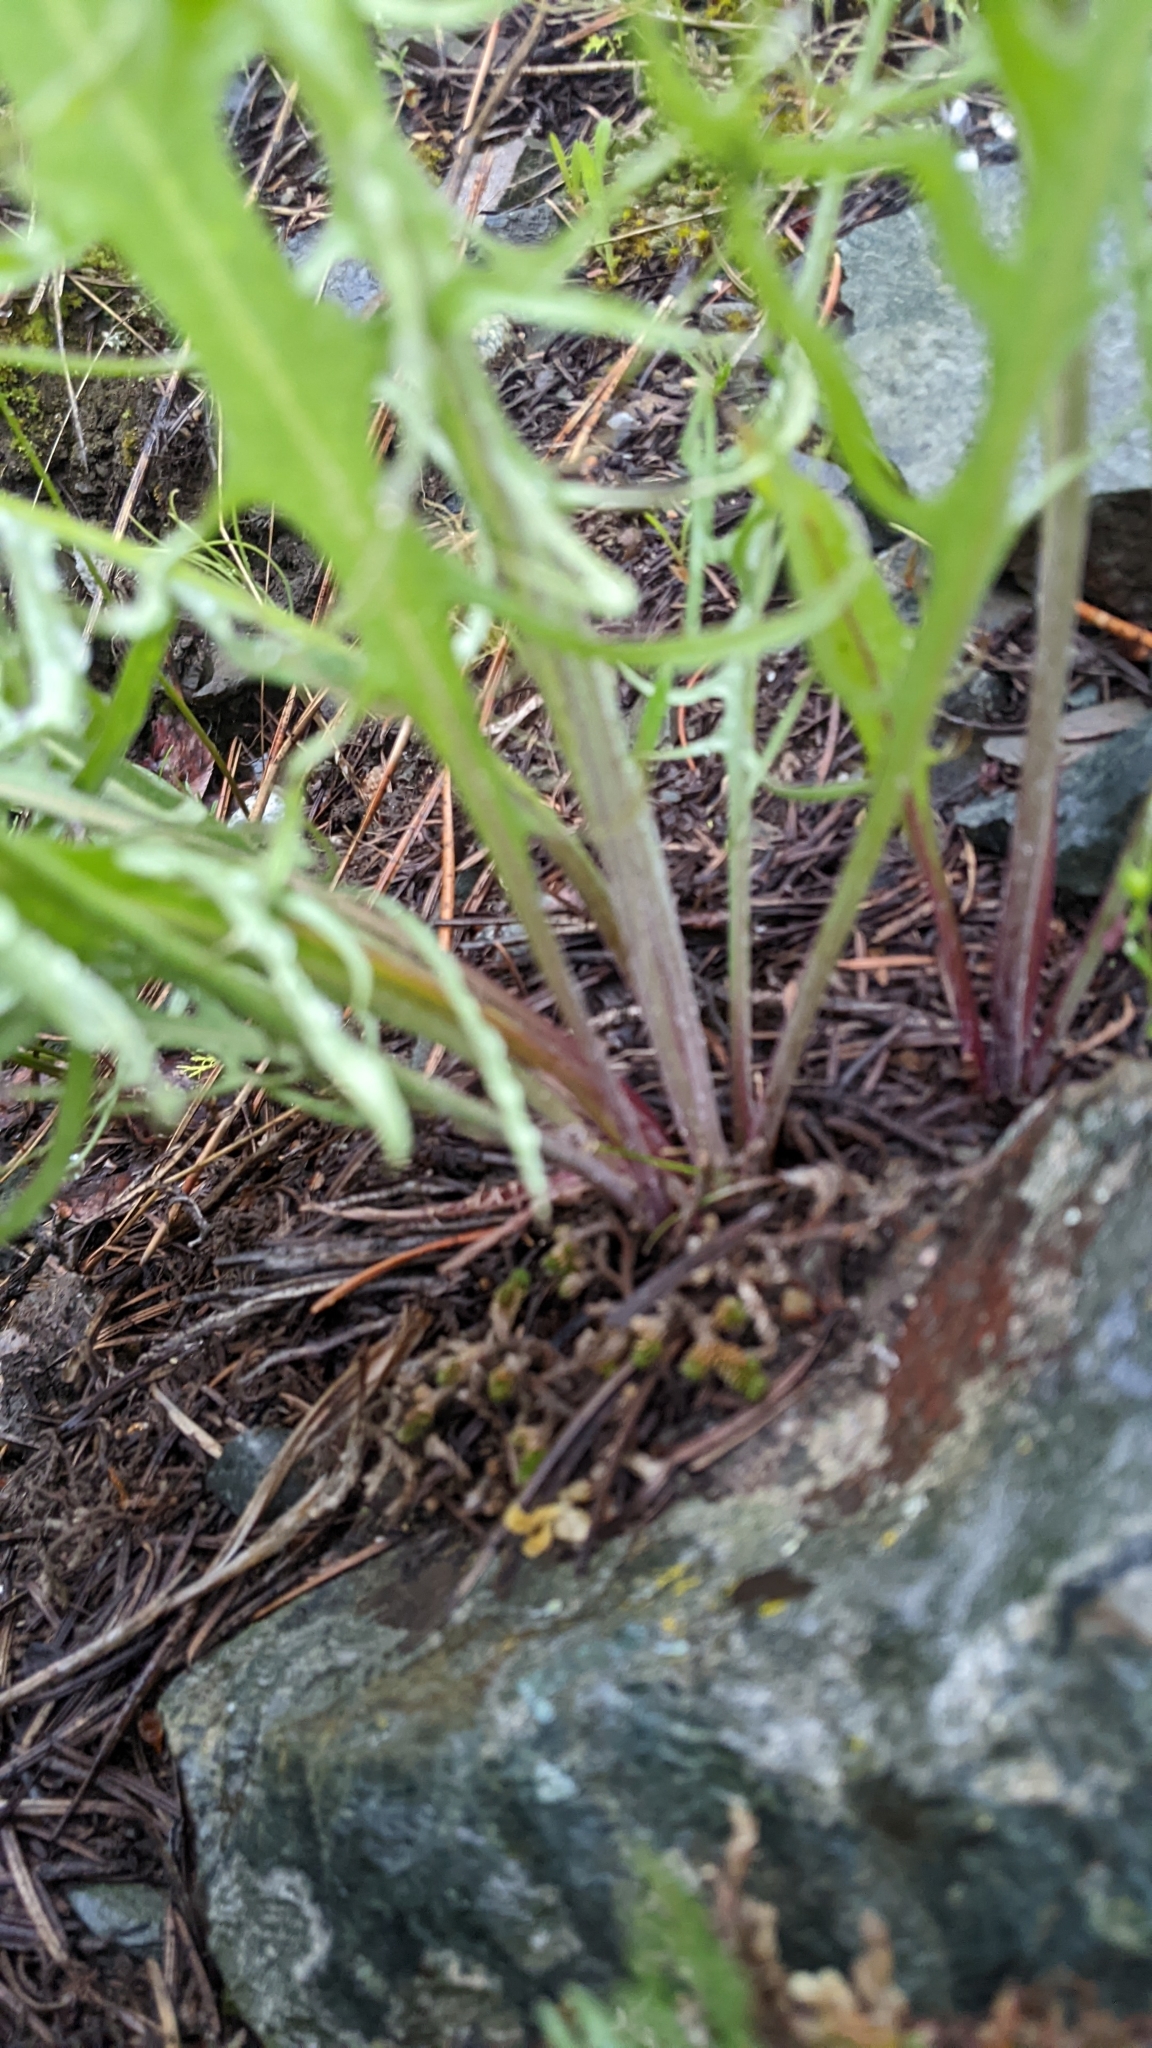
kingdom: Plantae
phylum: Tracheophyta
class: Magnoliopsida
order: Asterales
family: Asteraceae
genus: Crepis
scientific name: Crepis atribarba
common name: Dark hawk's-beard
